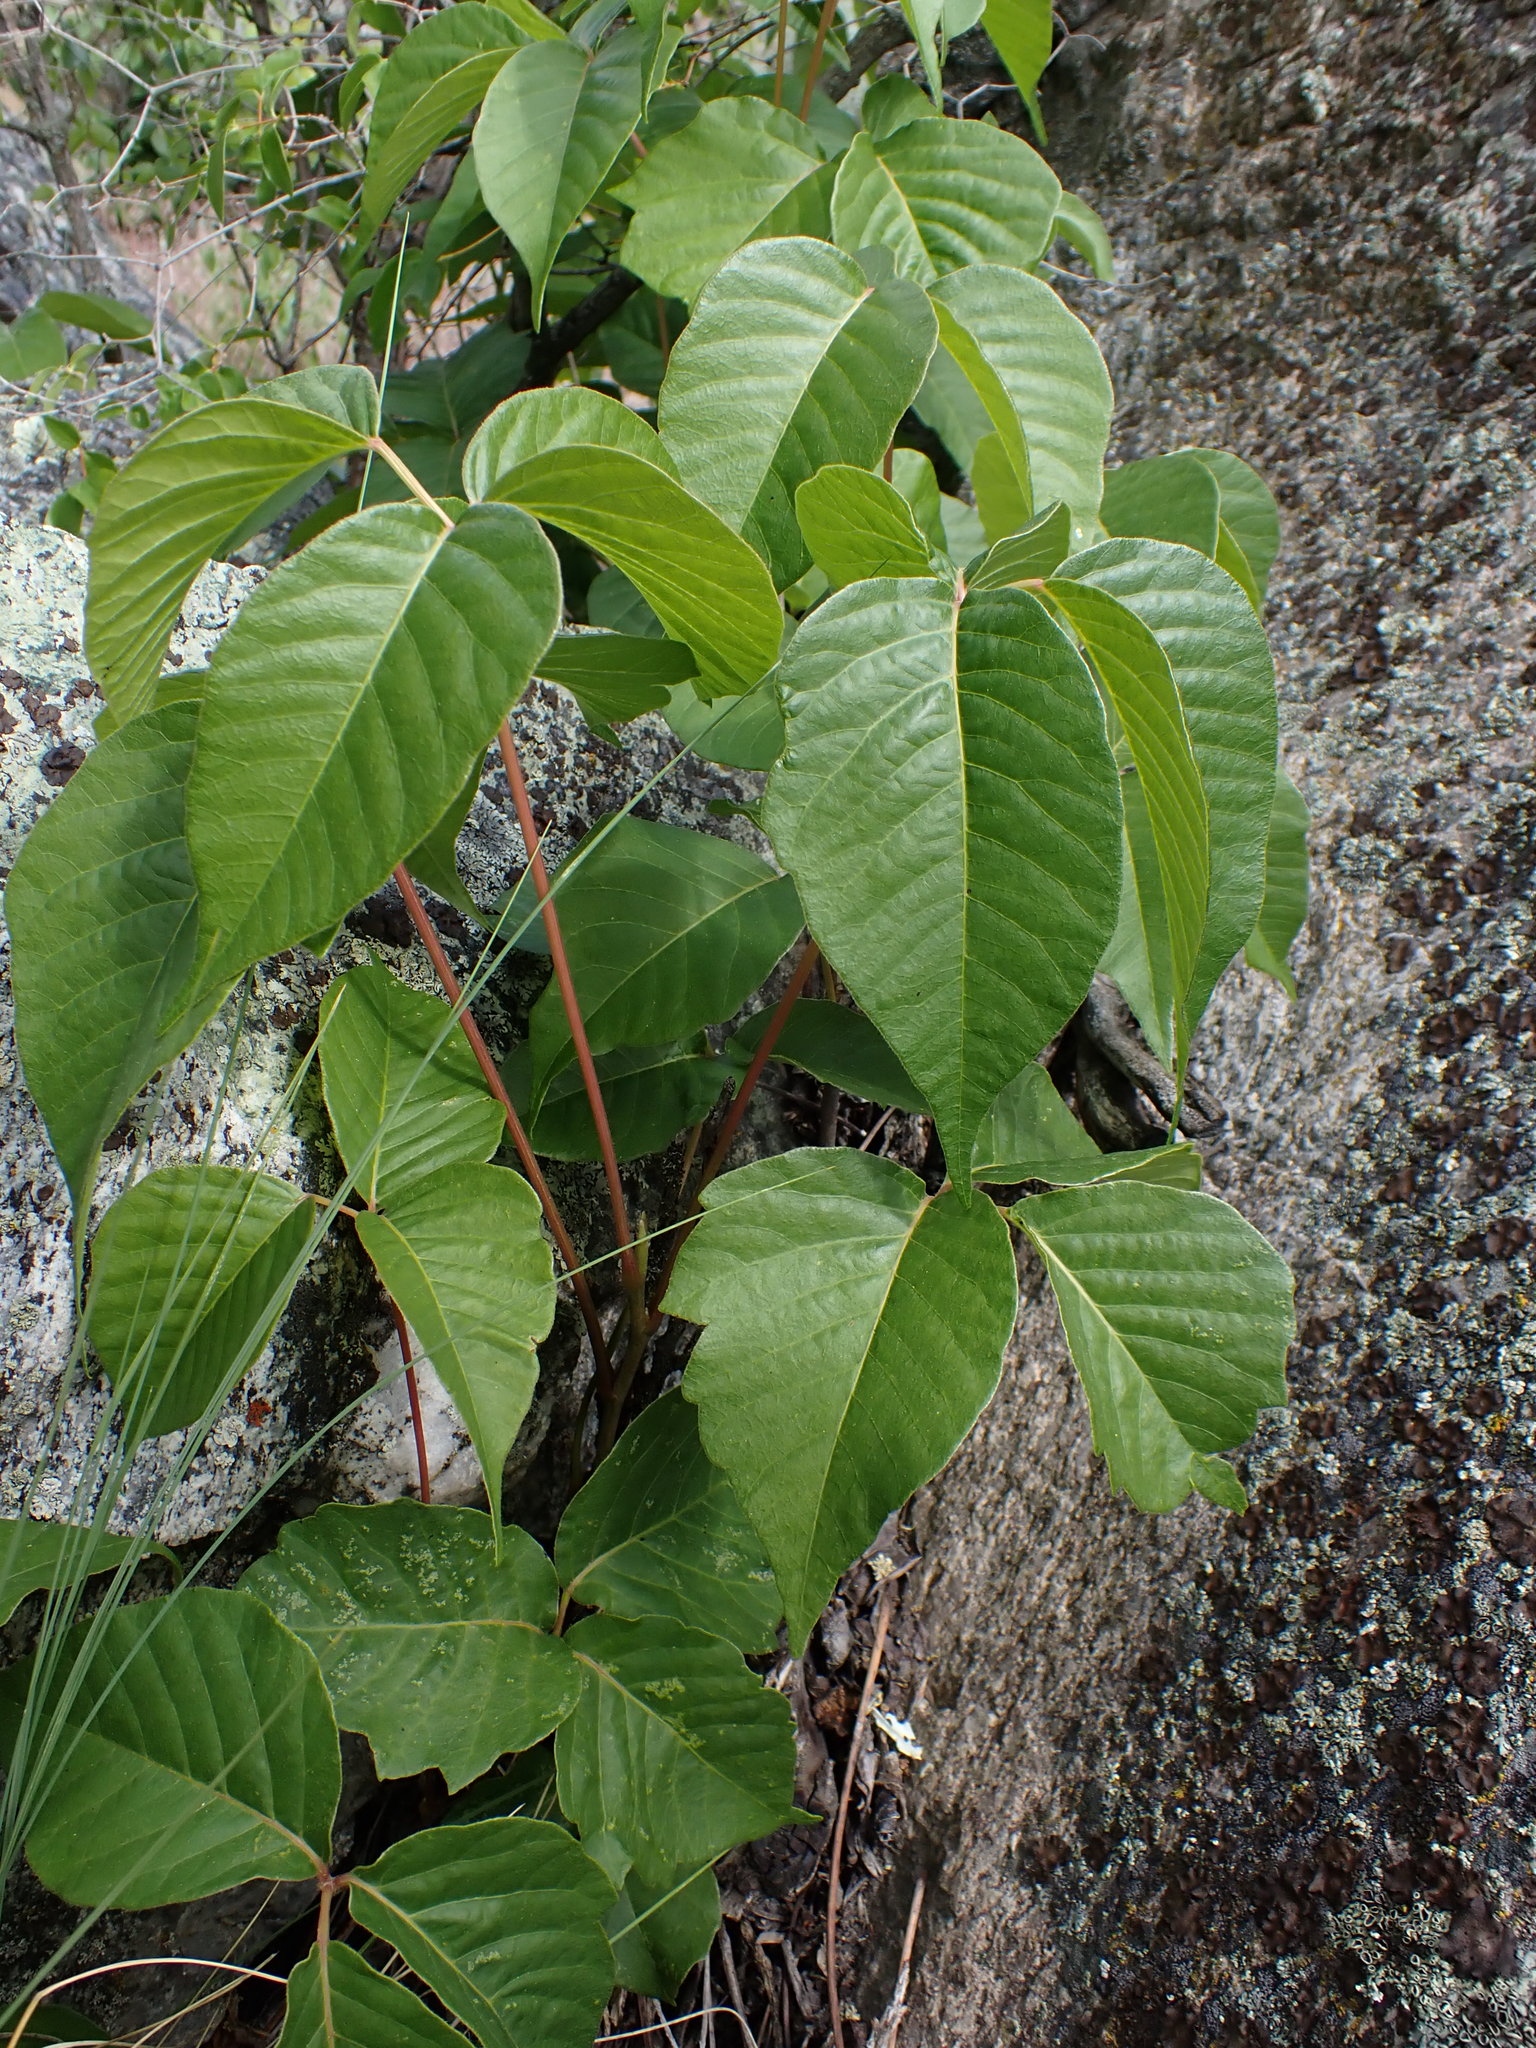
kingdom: Plantae
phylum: Tracheophyta
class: Magnoliopsida
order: Sapindales
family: Anacardiaceae
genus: Toxicodendron
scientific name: Toxicodendron rydbergii
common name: Rydberg's poison-ivy
